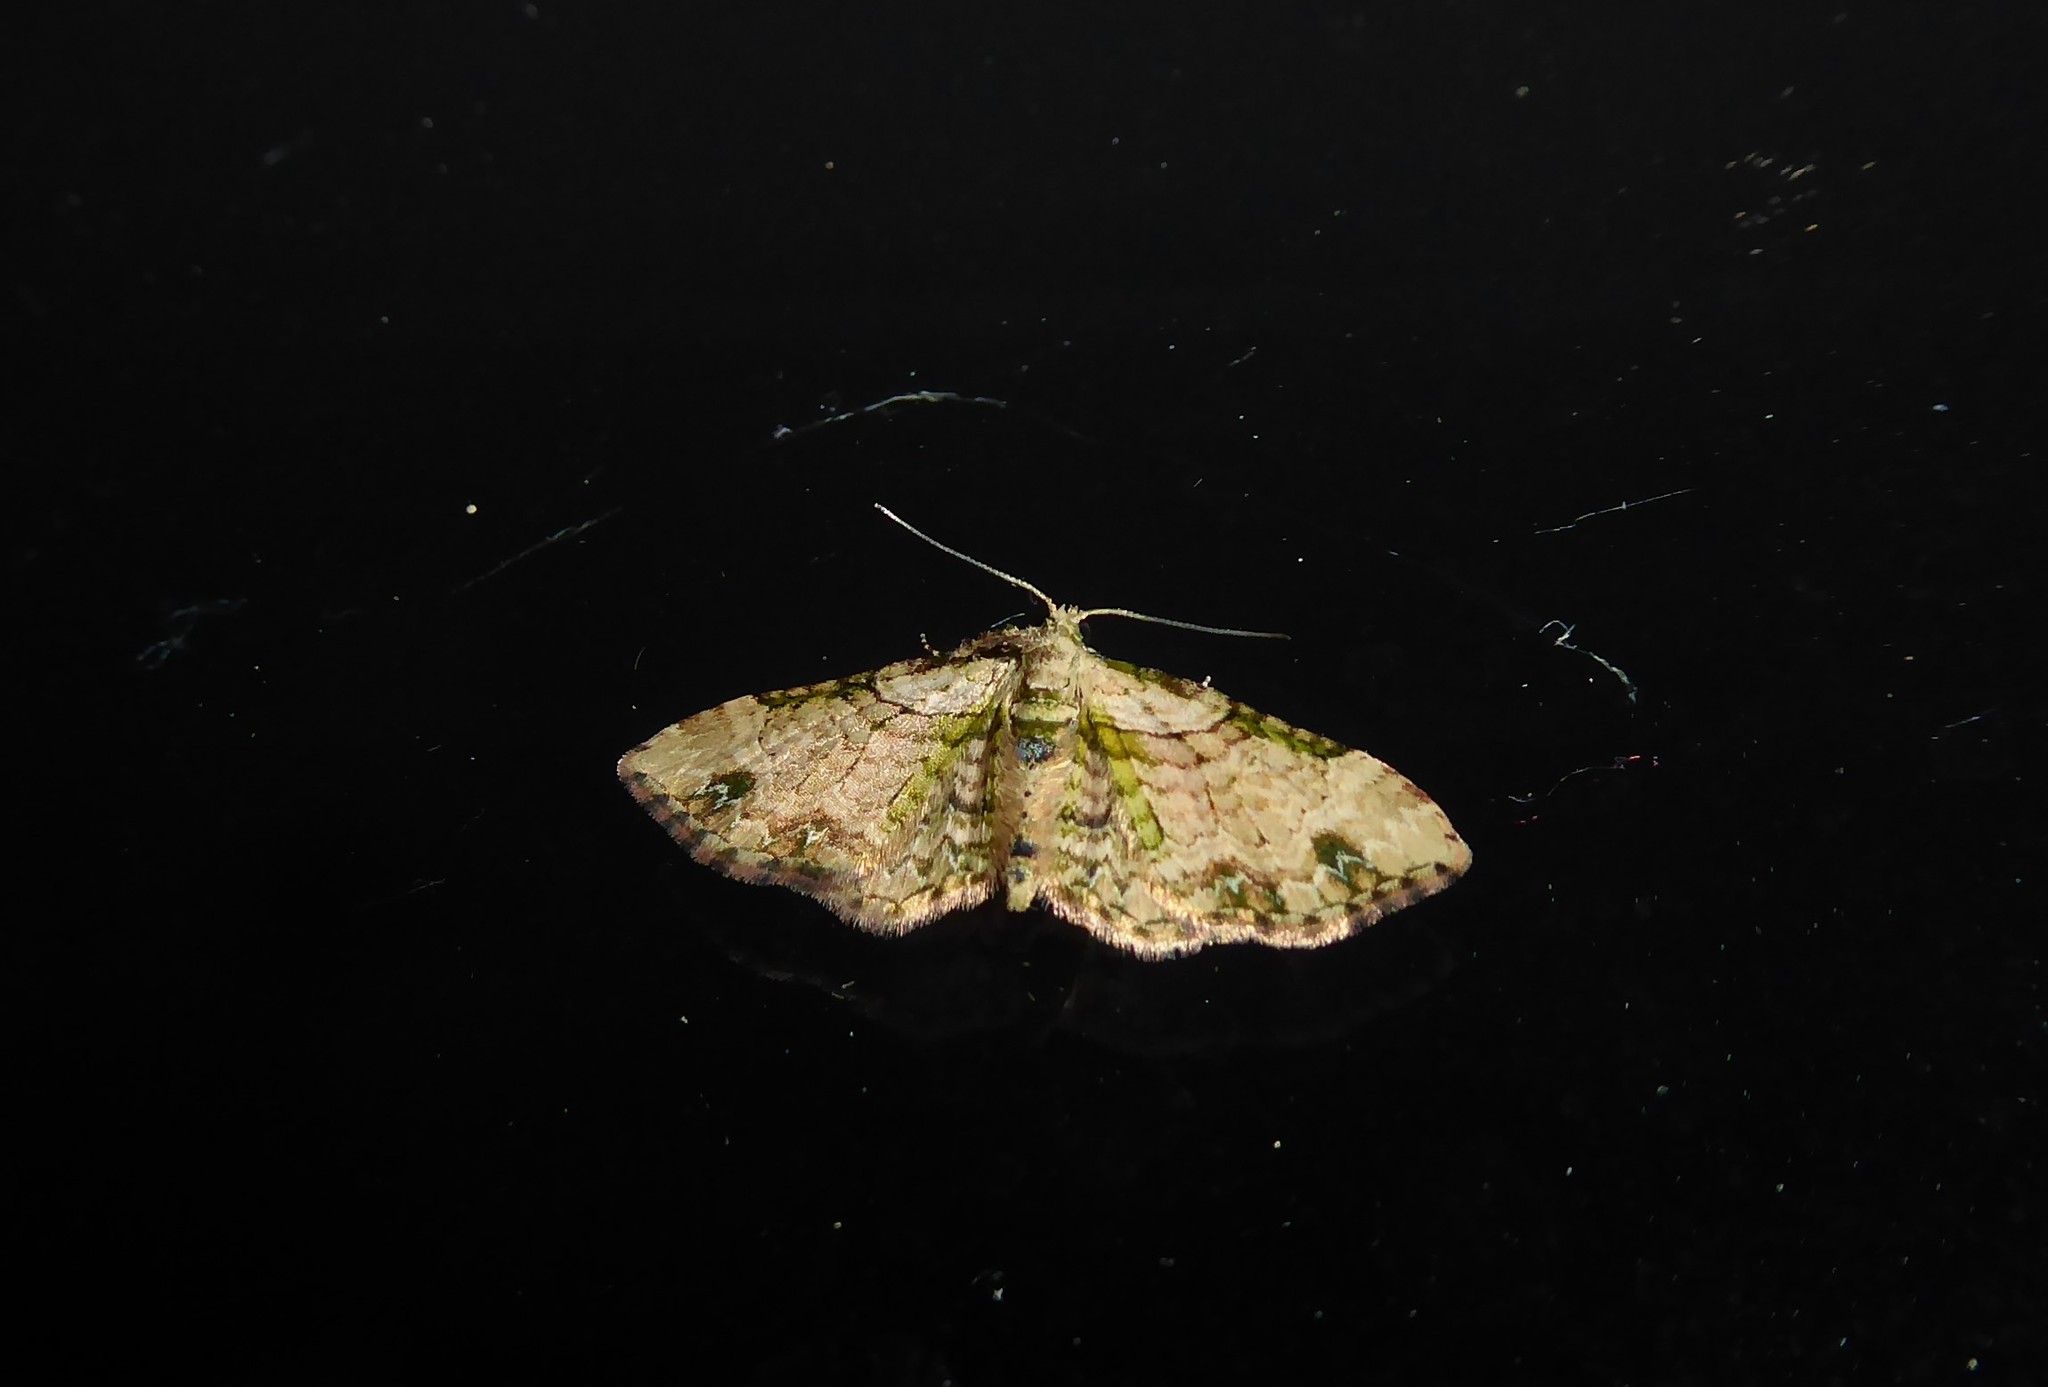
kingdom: Animalia
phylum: Arthropoda
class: Insecta
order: Lepidoptera
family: Geometridae
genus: Chloroclystis
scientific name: Chloroclystis
